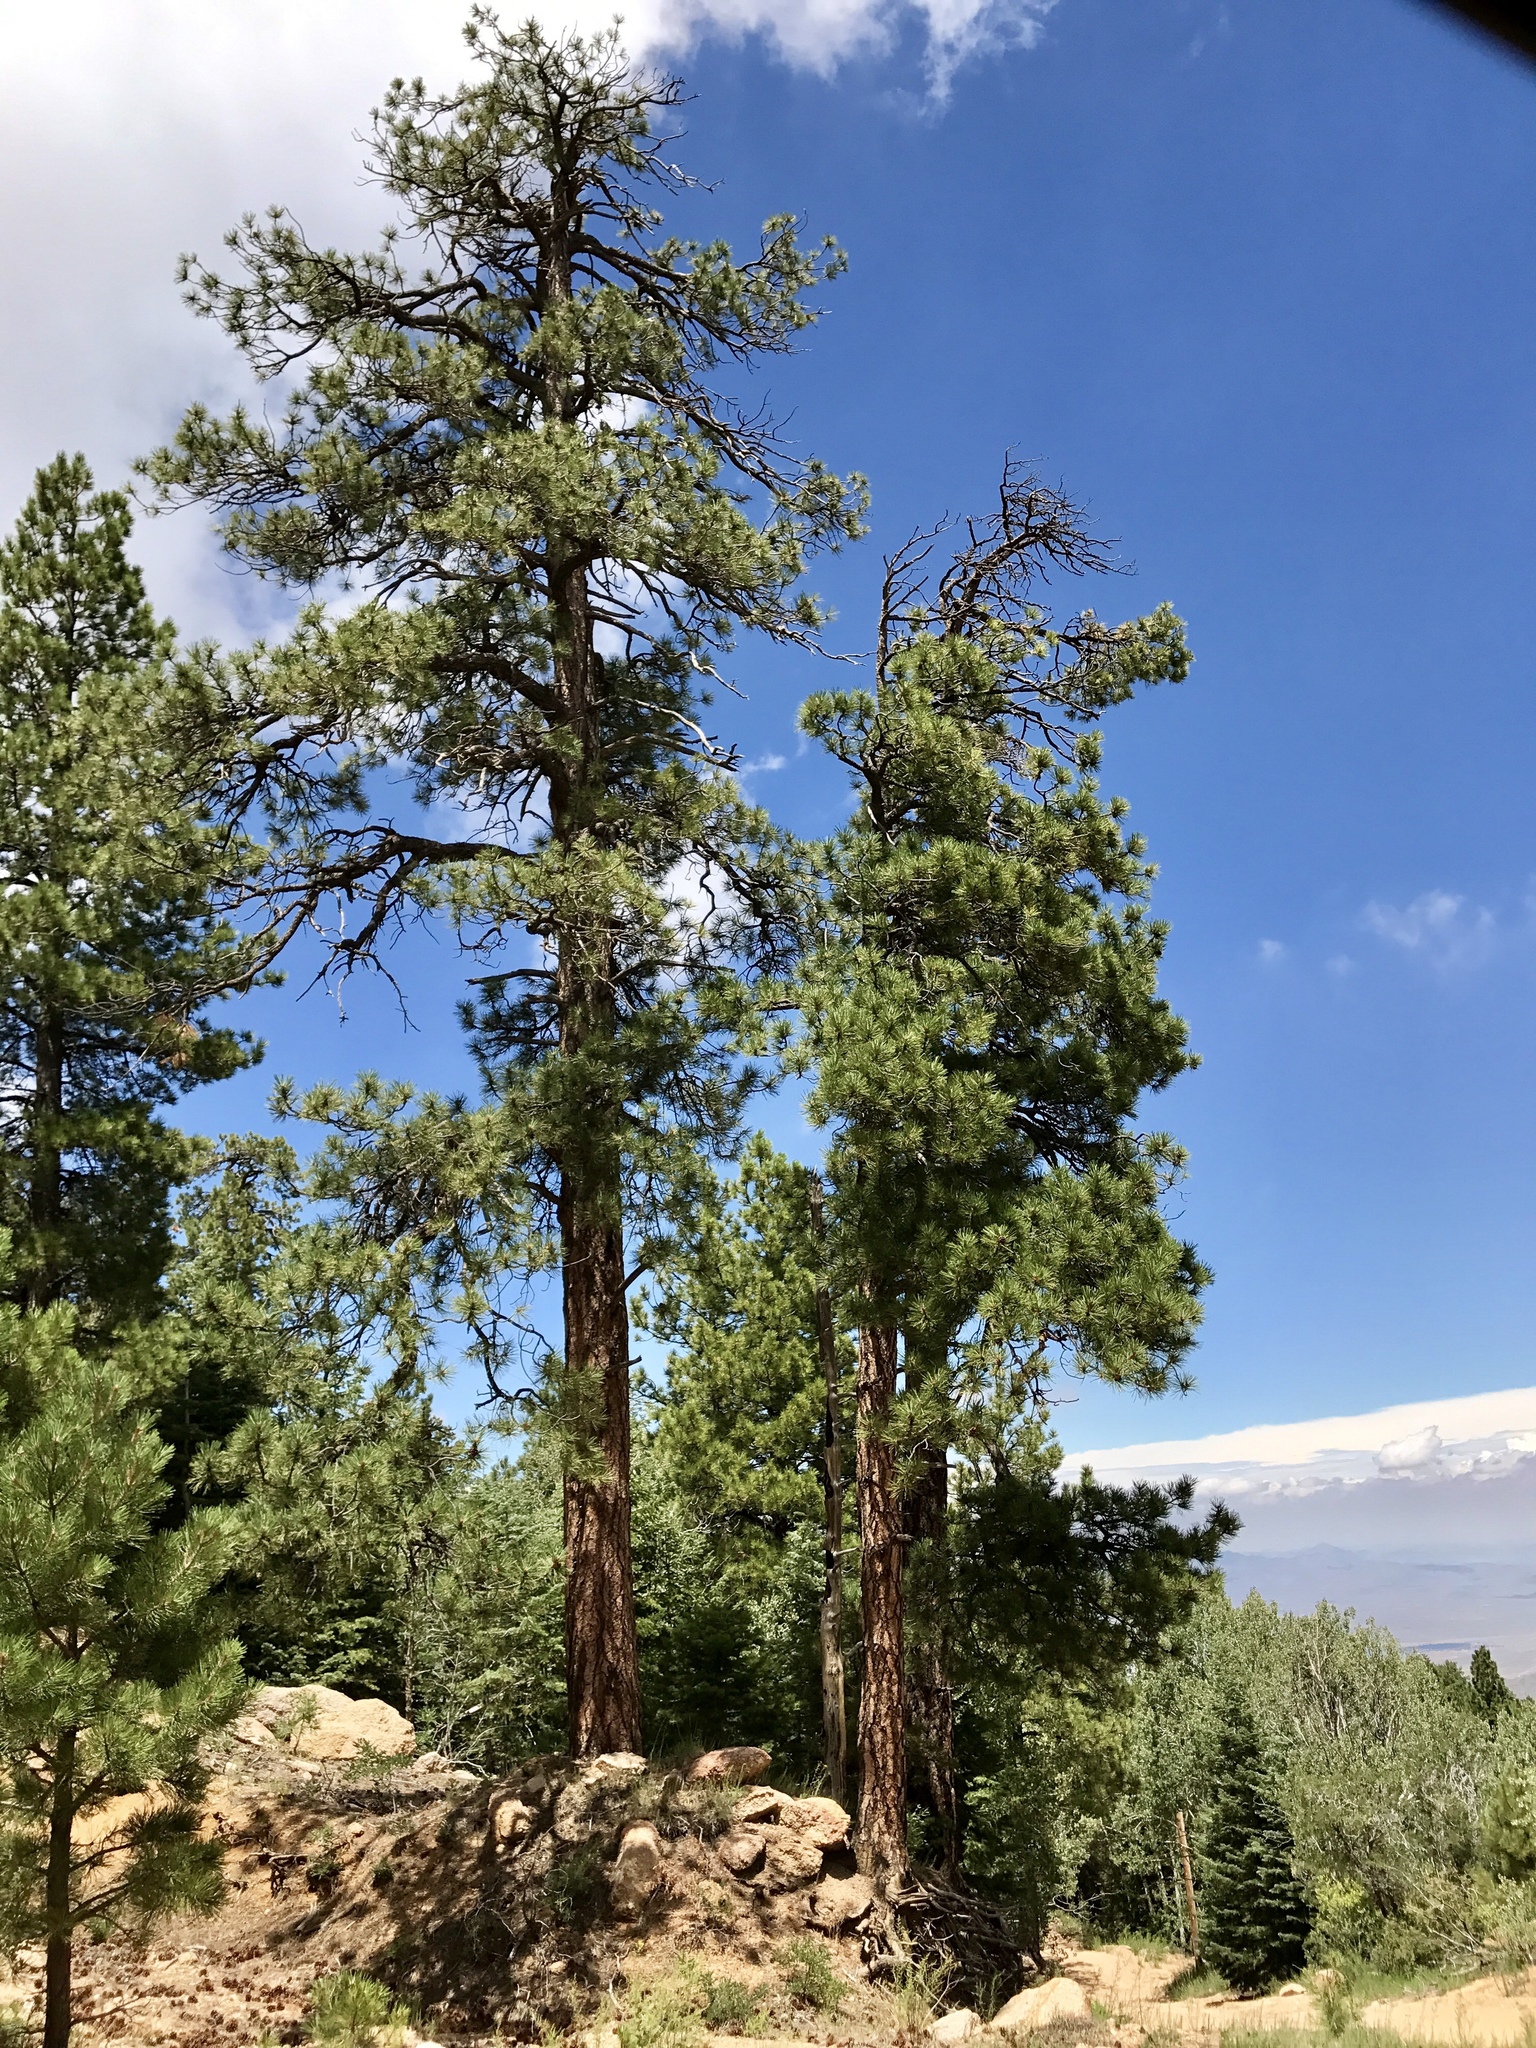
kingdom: Plantae
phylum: Tracheophyta
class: Pinopsida
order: Pinales
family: Pinaceae
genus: Pinus
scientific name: Pinus ponderosa
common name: Western yellow-pine
